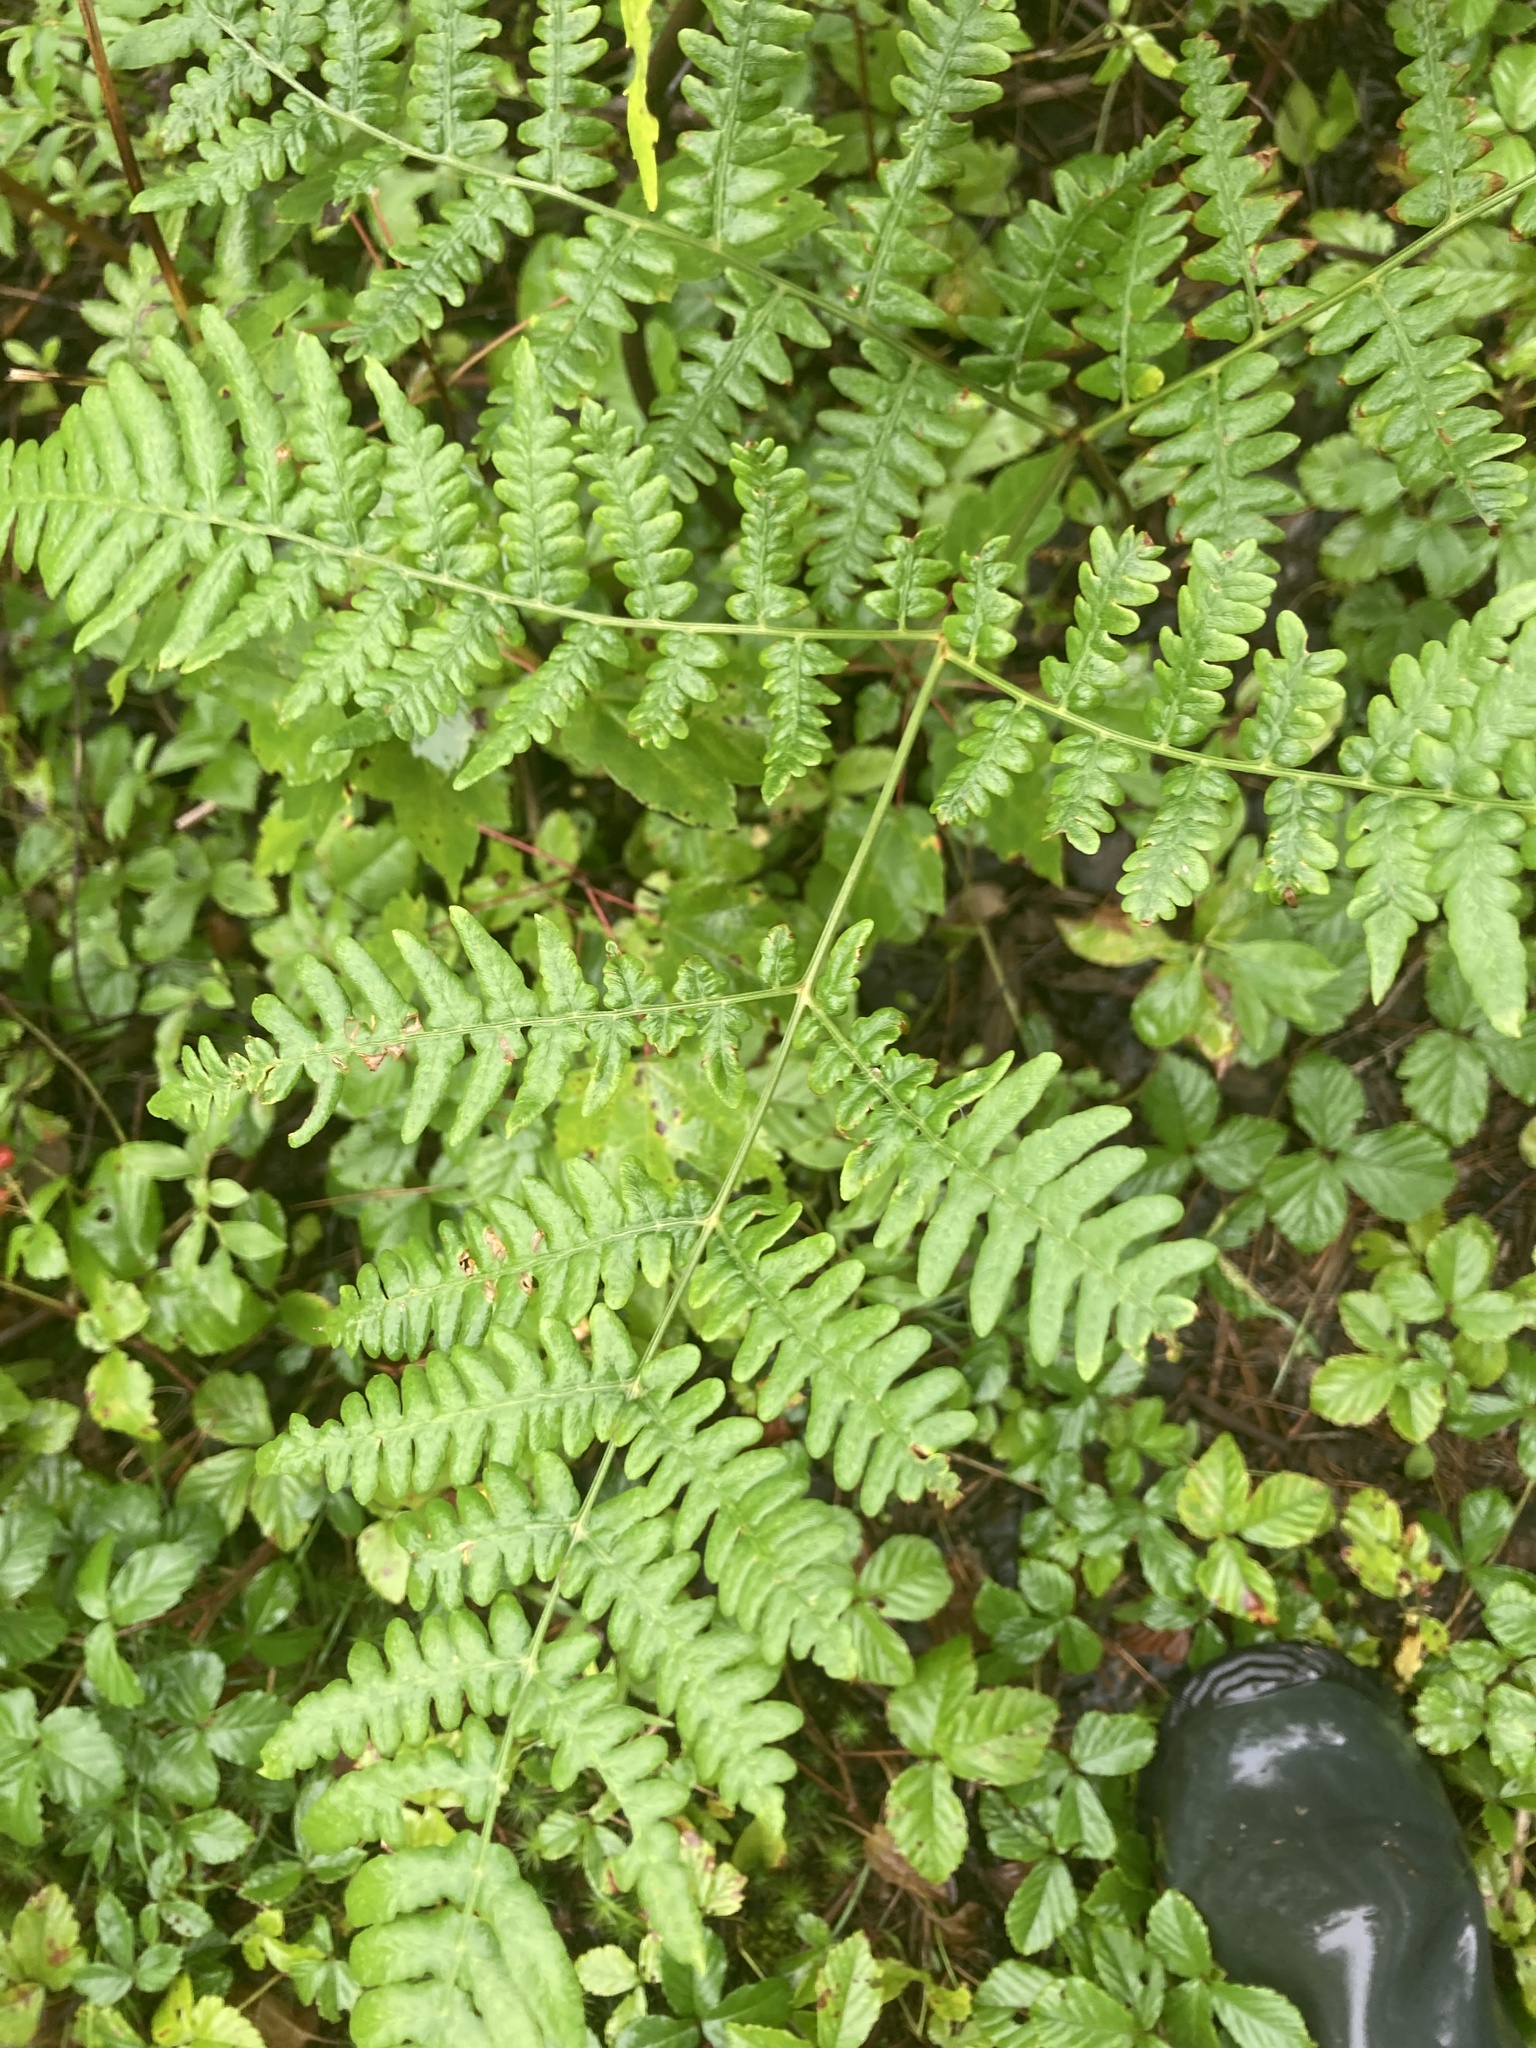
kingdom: Plantae
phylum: Tracheophyta
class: Polypodiopsida
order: Polypodiales
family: Dennstaedtiaceae
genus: Pteridium
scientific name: Pteridium aquilinum
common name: Bracken
